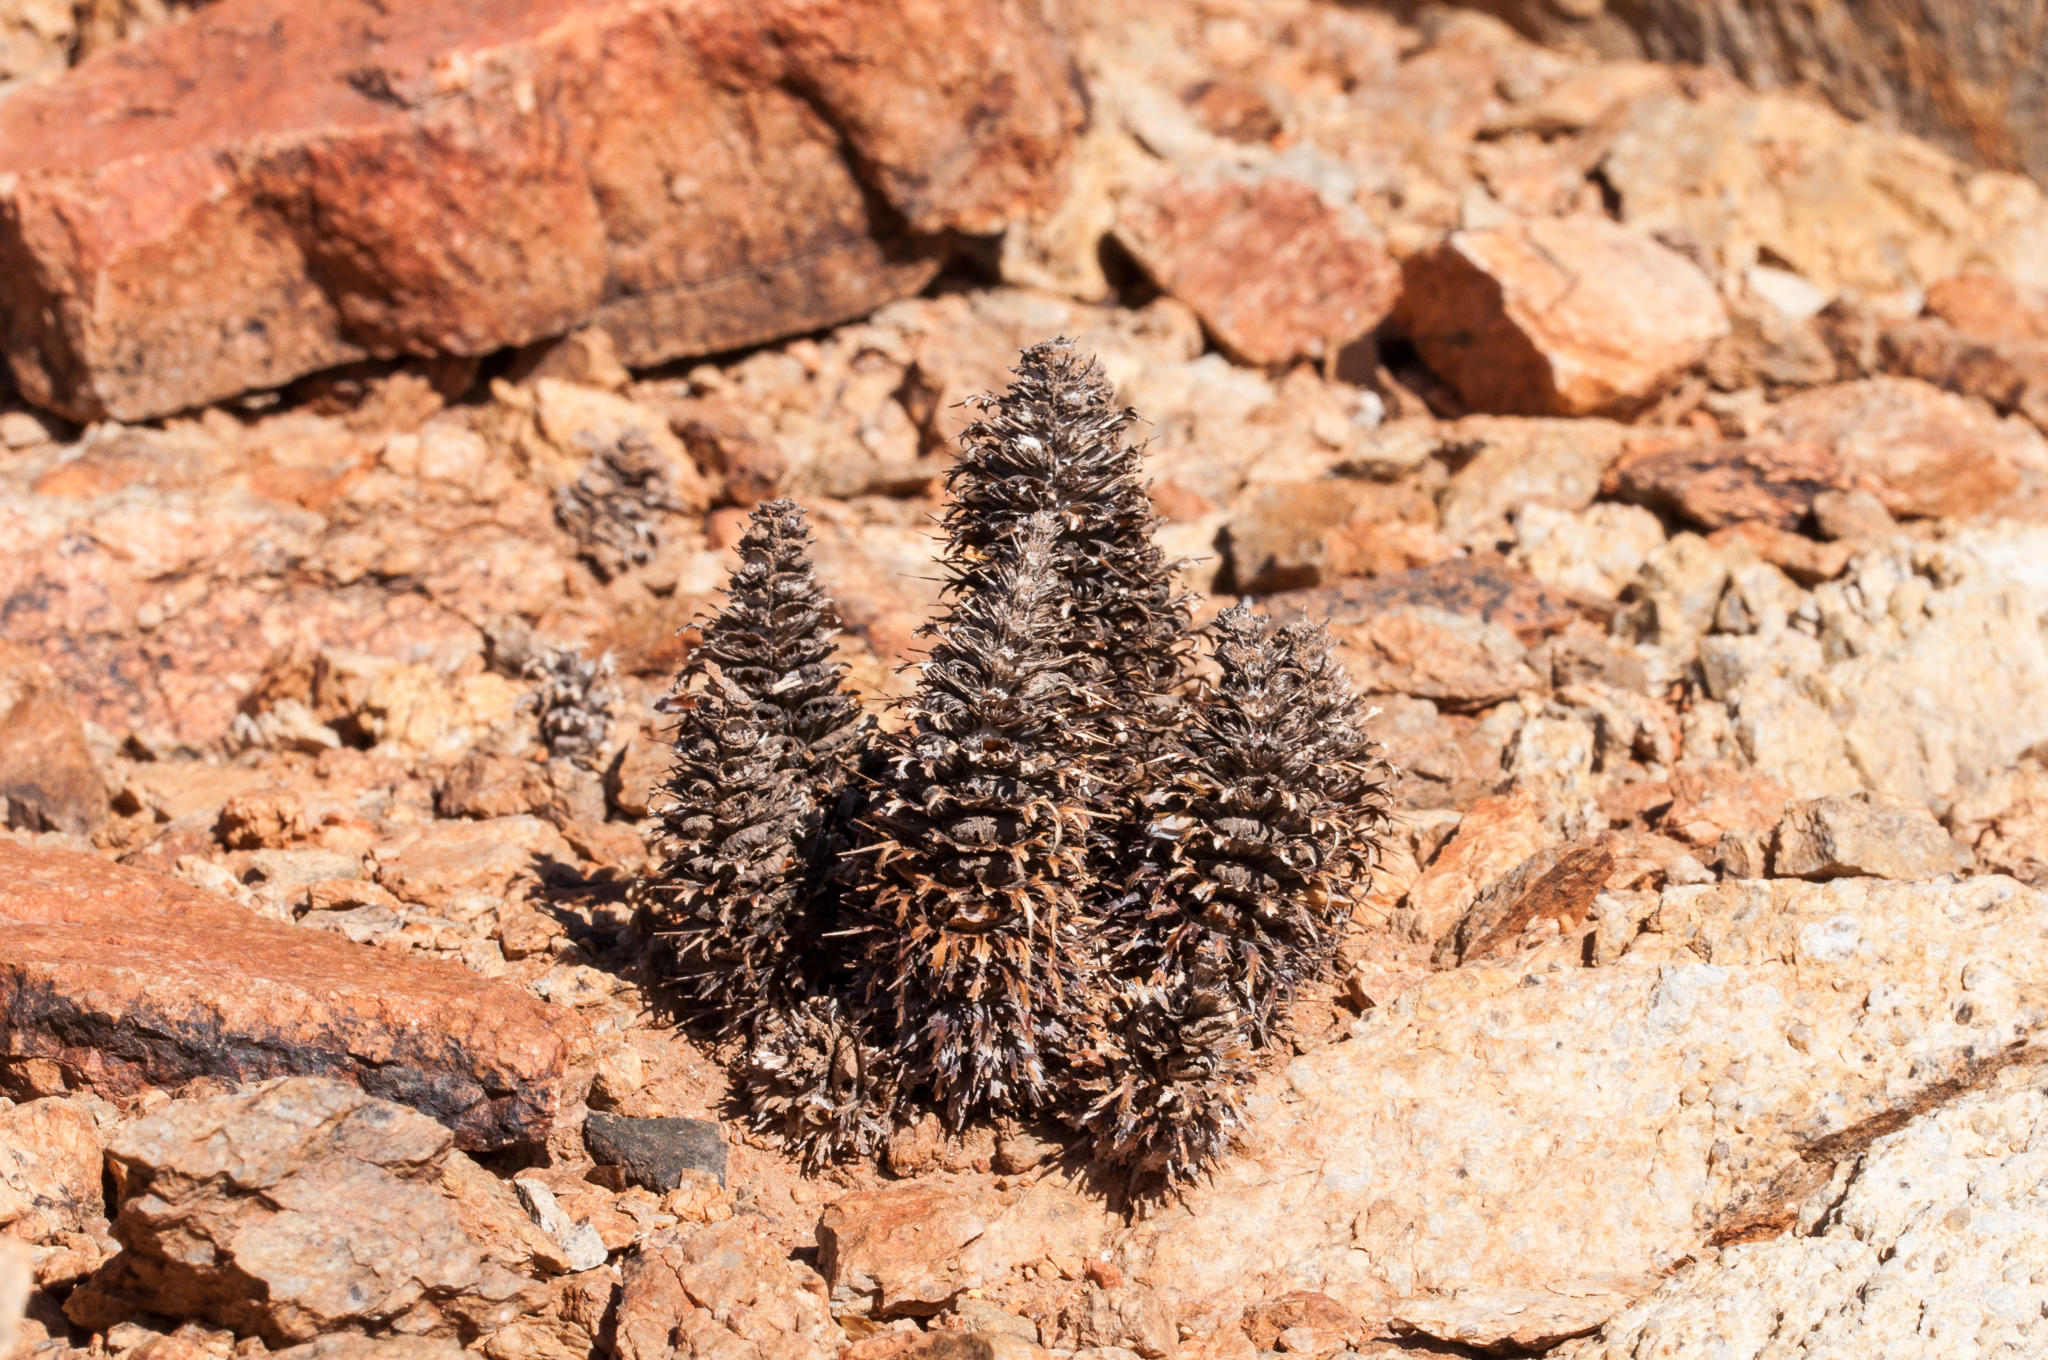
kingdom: Plantae
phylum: Tracheophyta
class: Magnoliopsida
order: Lamiales
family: Acanthaceae
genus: Acanthopsis
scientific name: Acanthopsis disperma
